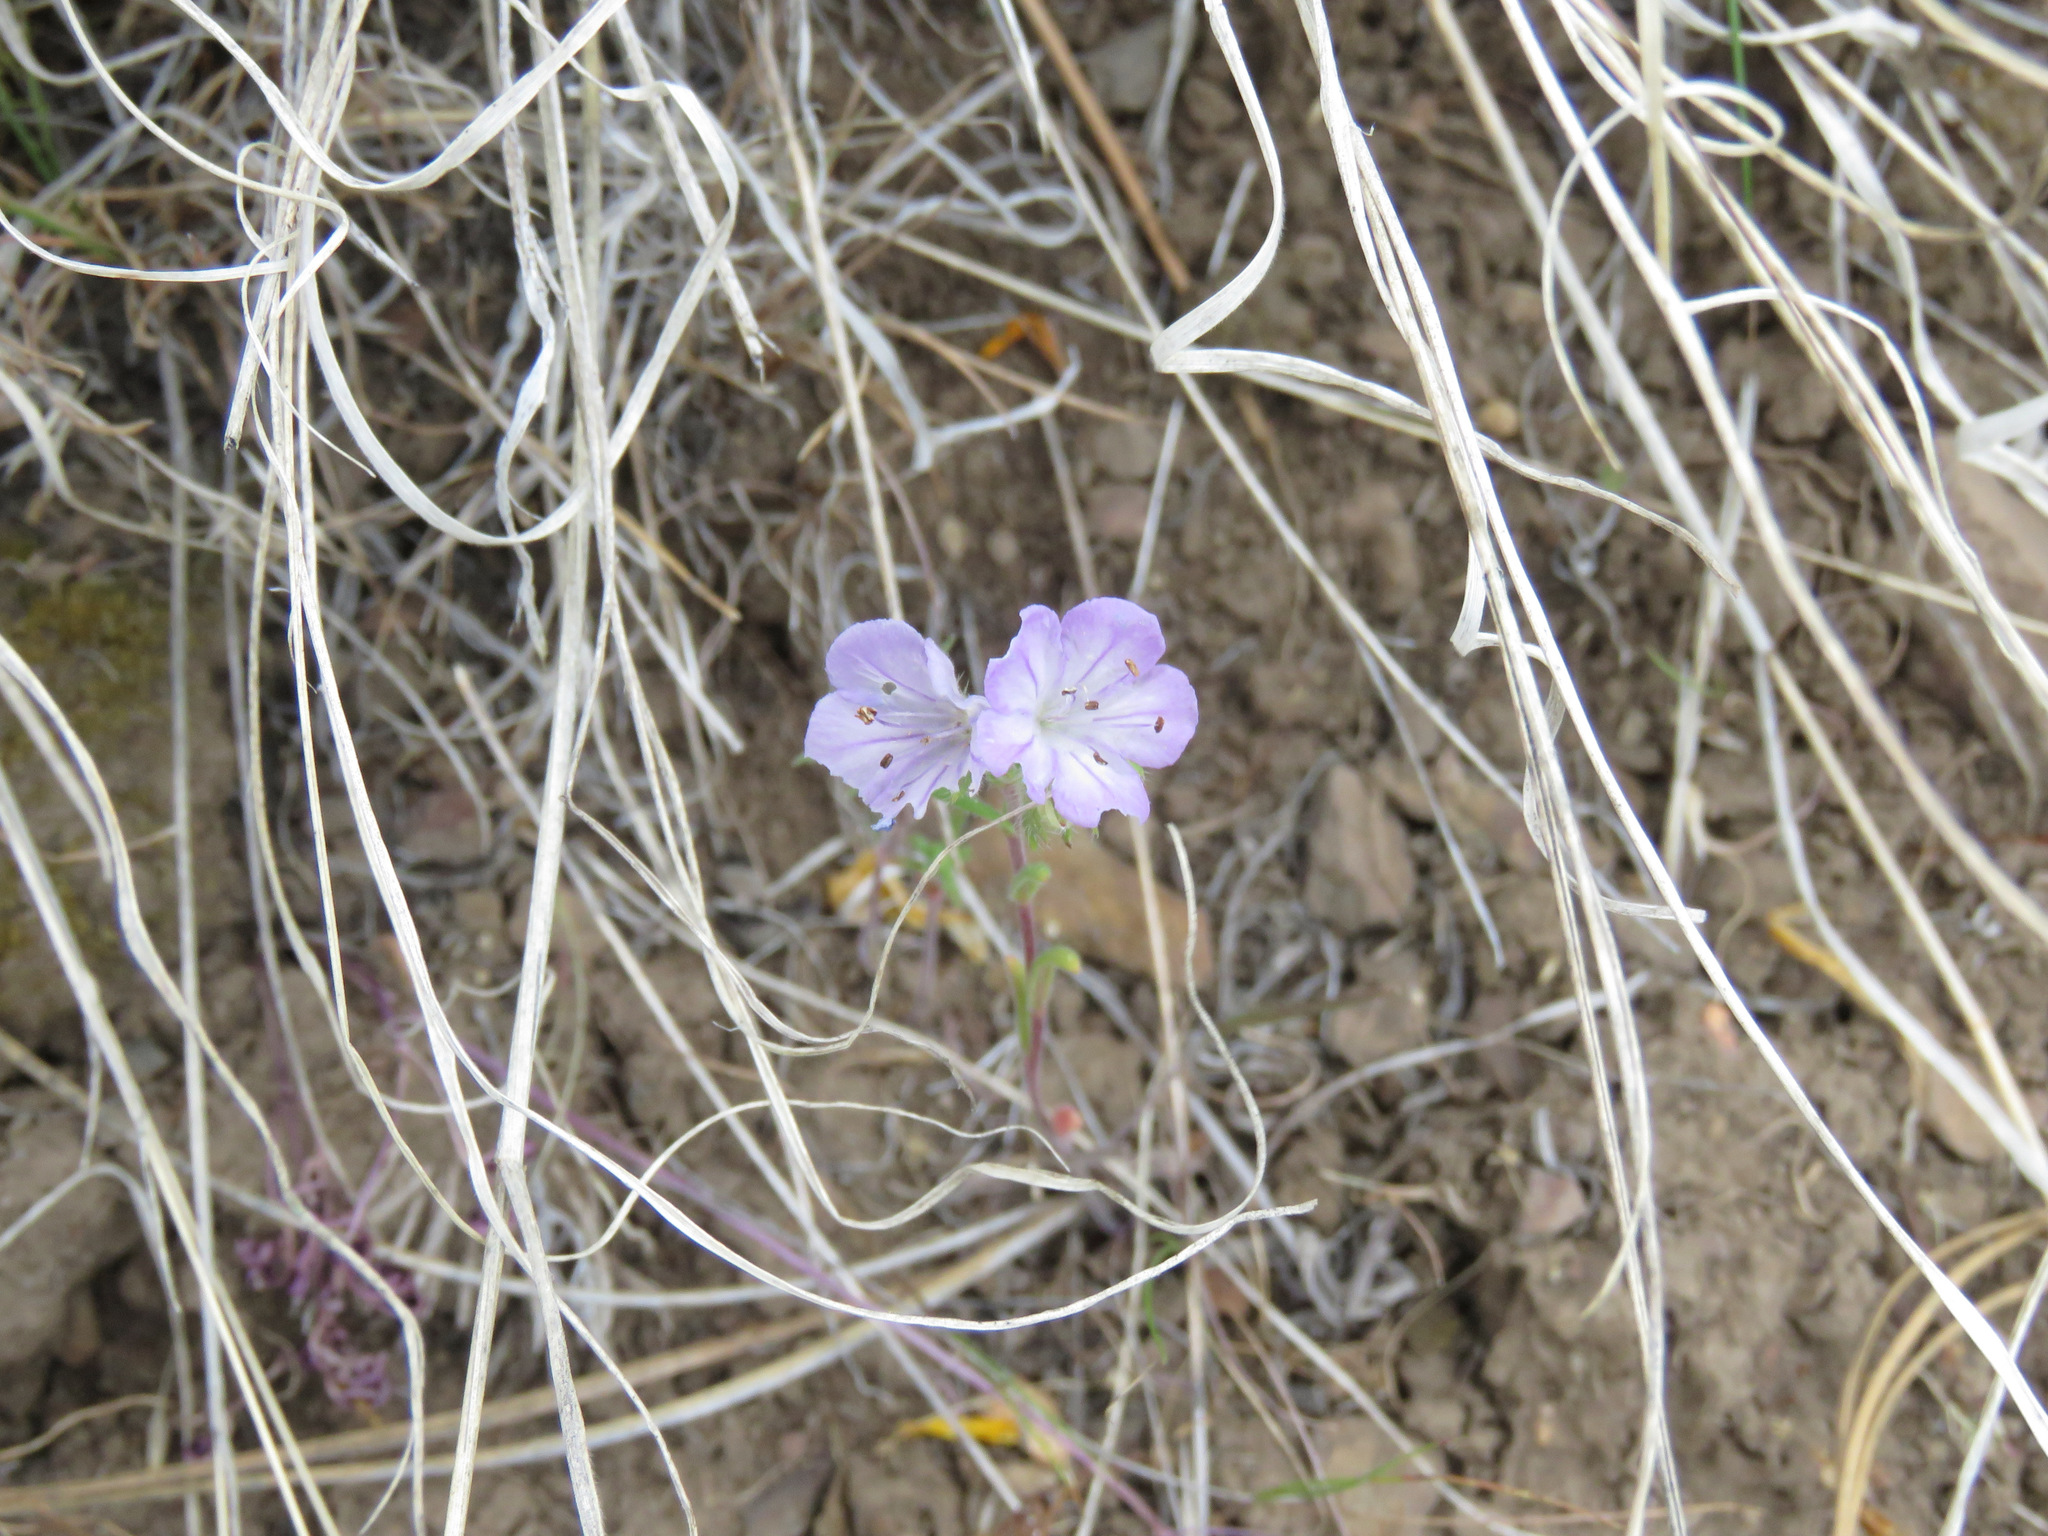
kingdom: Plantae
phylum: Tracheophyta
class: Magnoliopsida
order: Boraginales
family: Hydrophyllaceae
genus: Phacelia
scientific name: Phacelia linearis
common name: Linear-leaved phacelia
